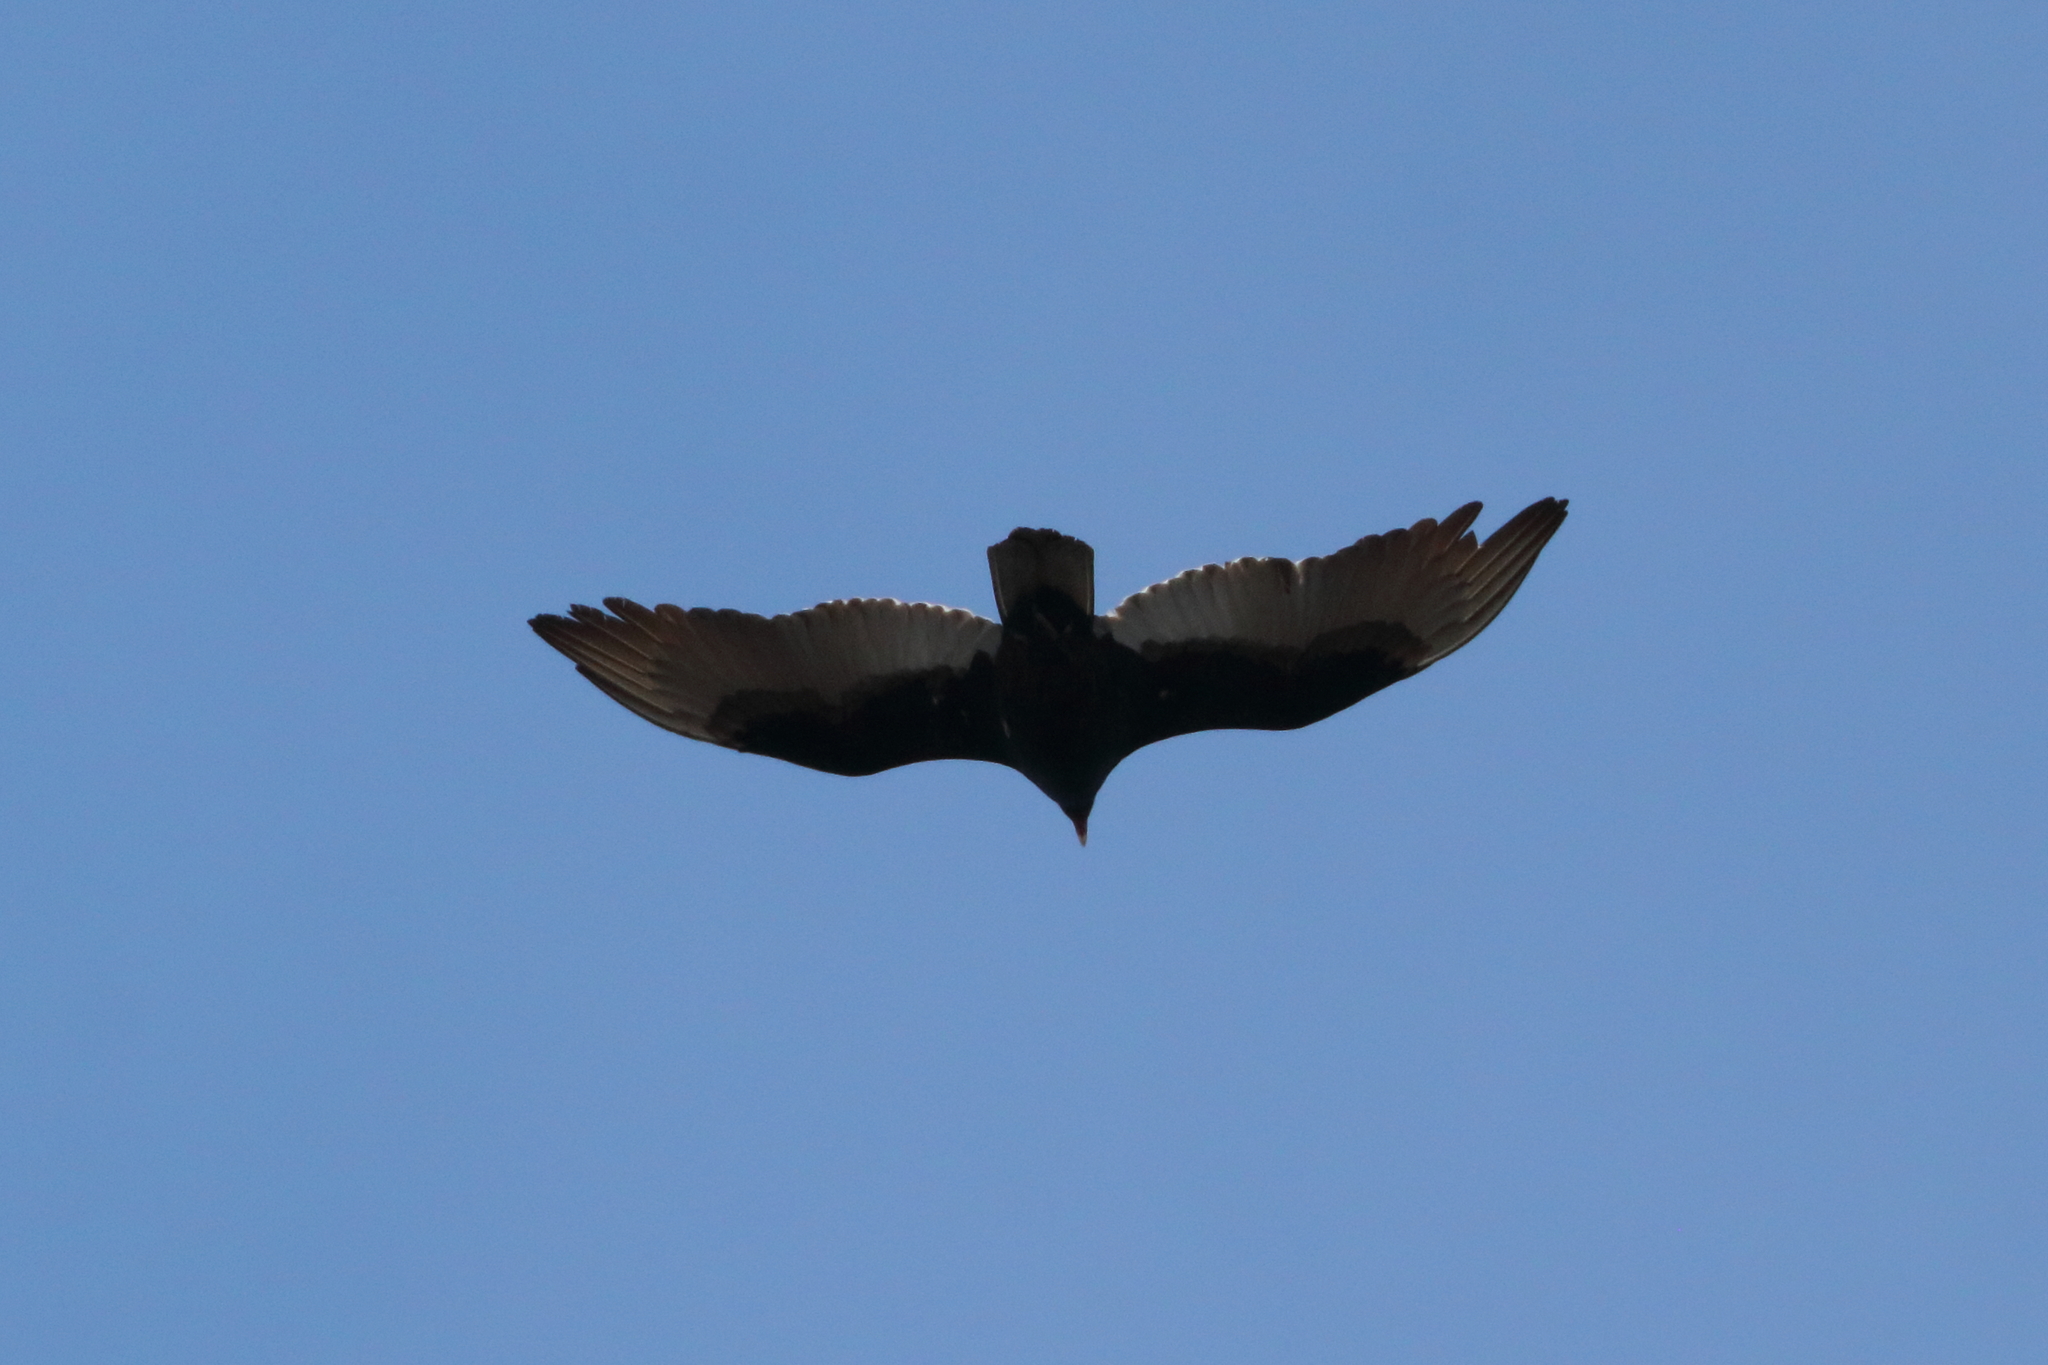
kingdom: Animalia
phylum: Chordata
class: Aves
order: Accipitriformes
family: Cathartidae
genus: Cathartes
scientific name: Cathartes aura
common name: Turkey vulture
